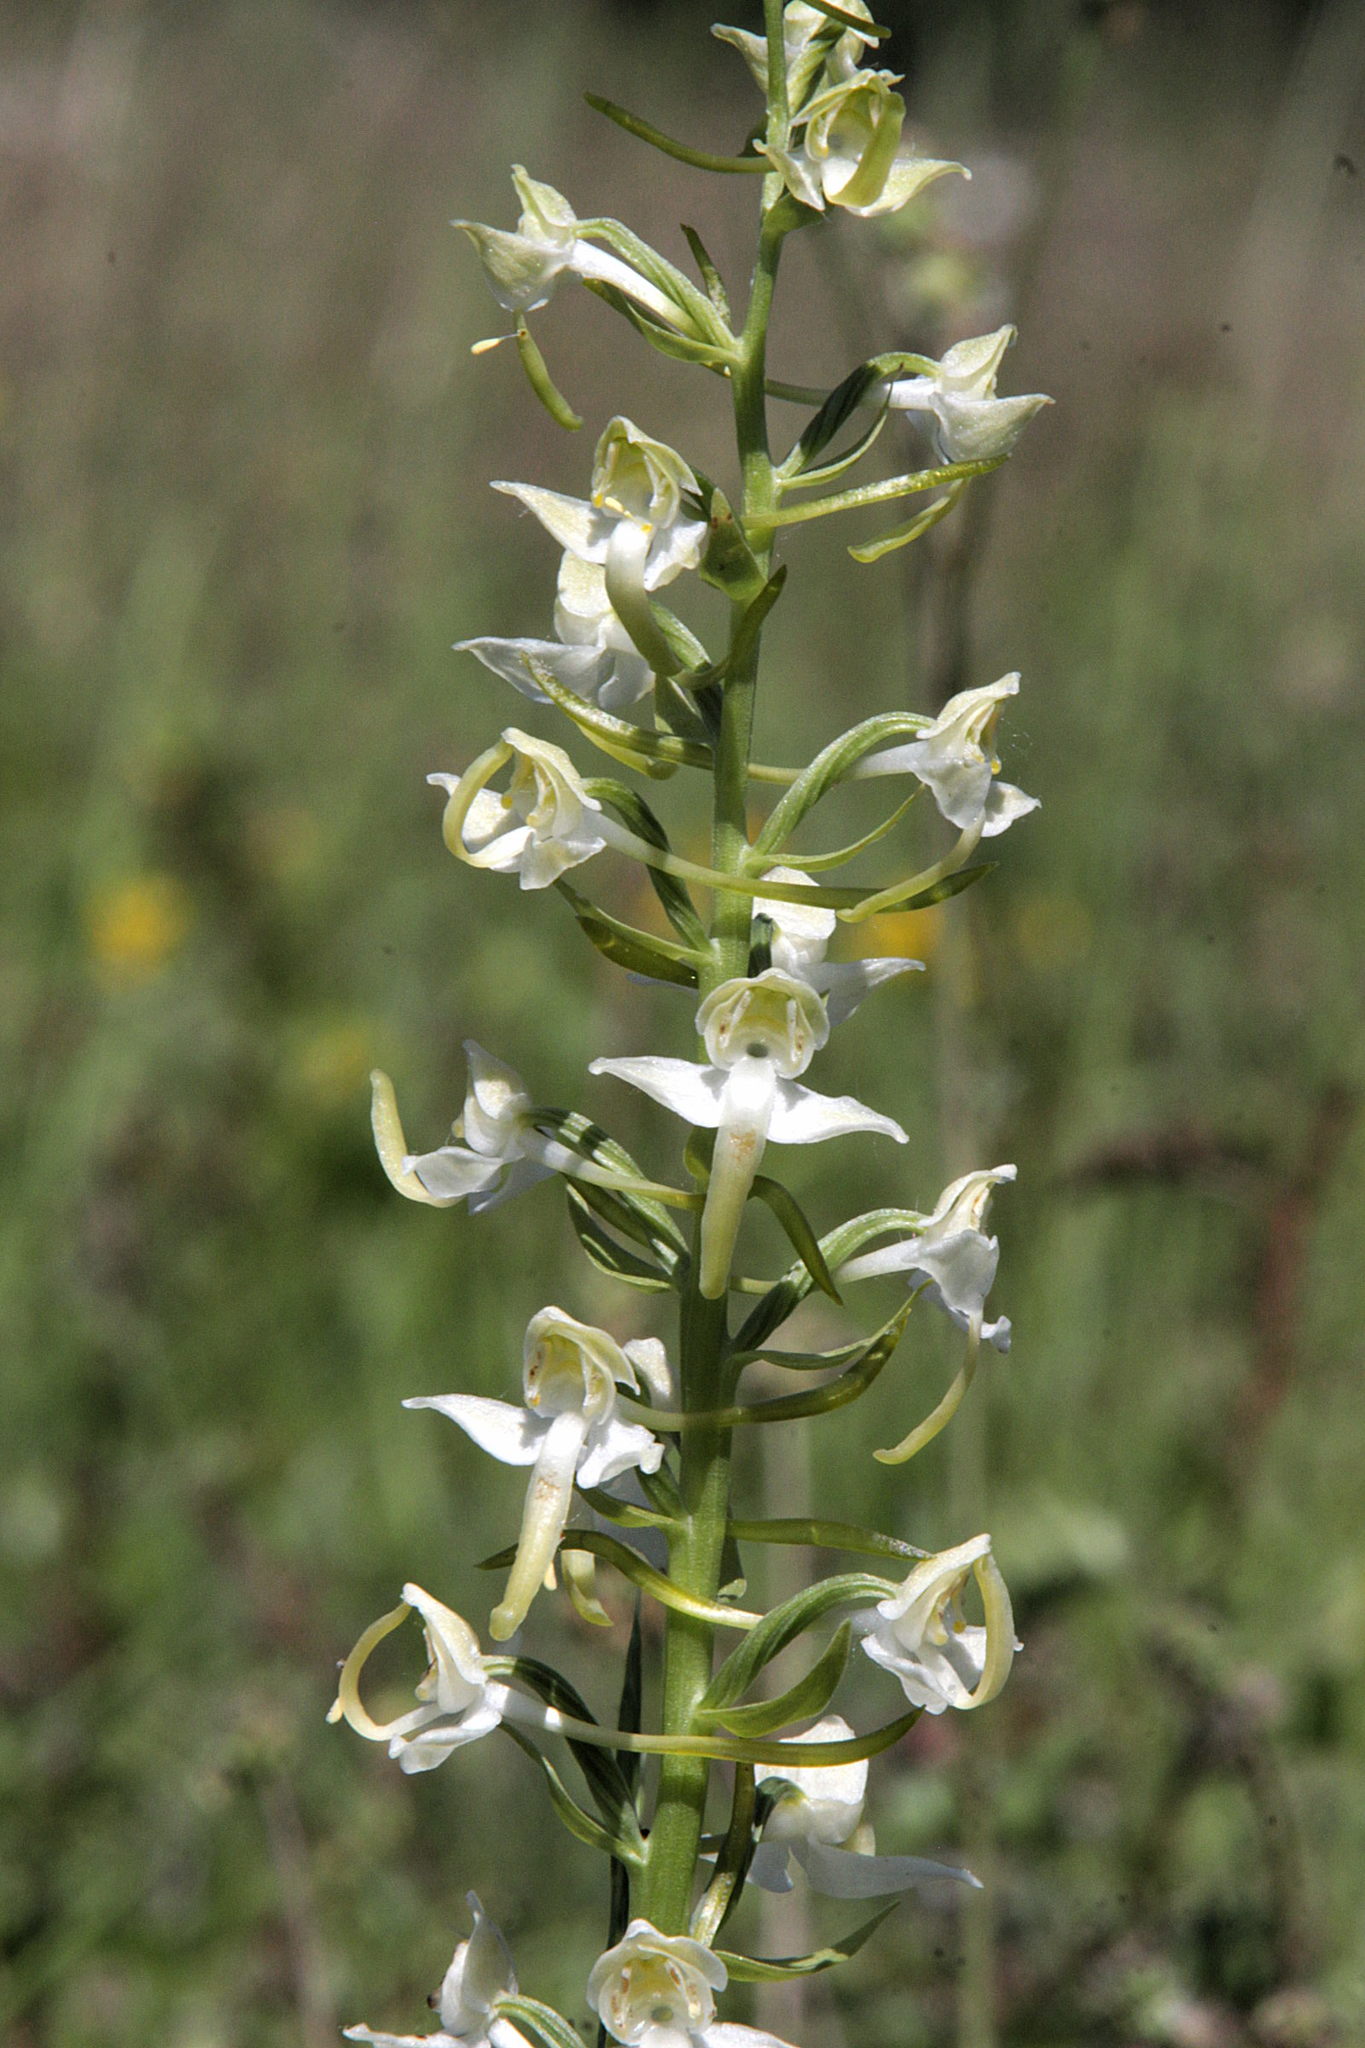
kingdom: Plantae
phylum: Tracheophyta
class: Liliopsida
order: Asparagales
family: Orchidaceae
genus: Platanthera
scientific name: Platanthera chlorantha
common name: Greater butterfly-orchid
